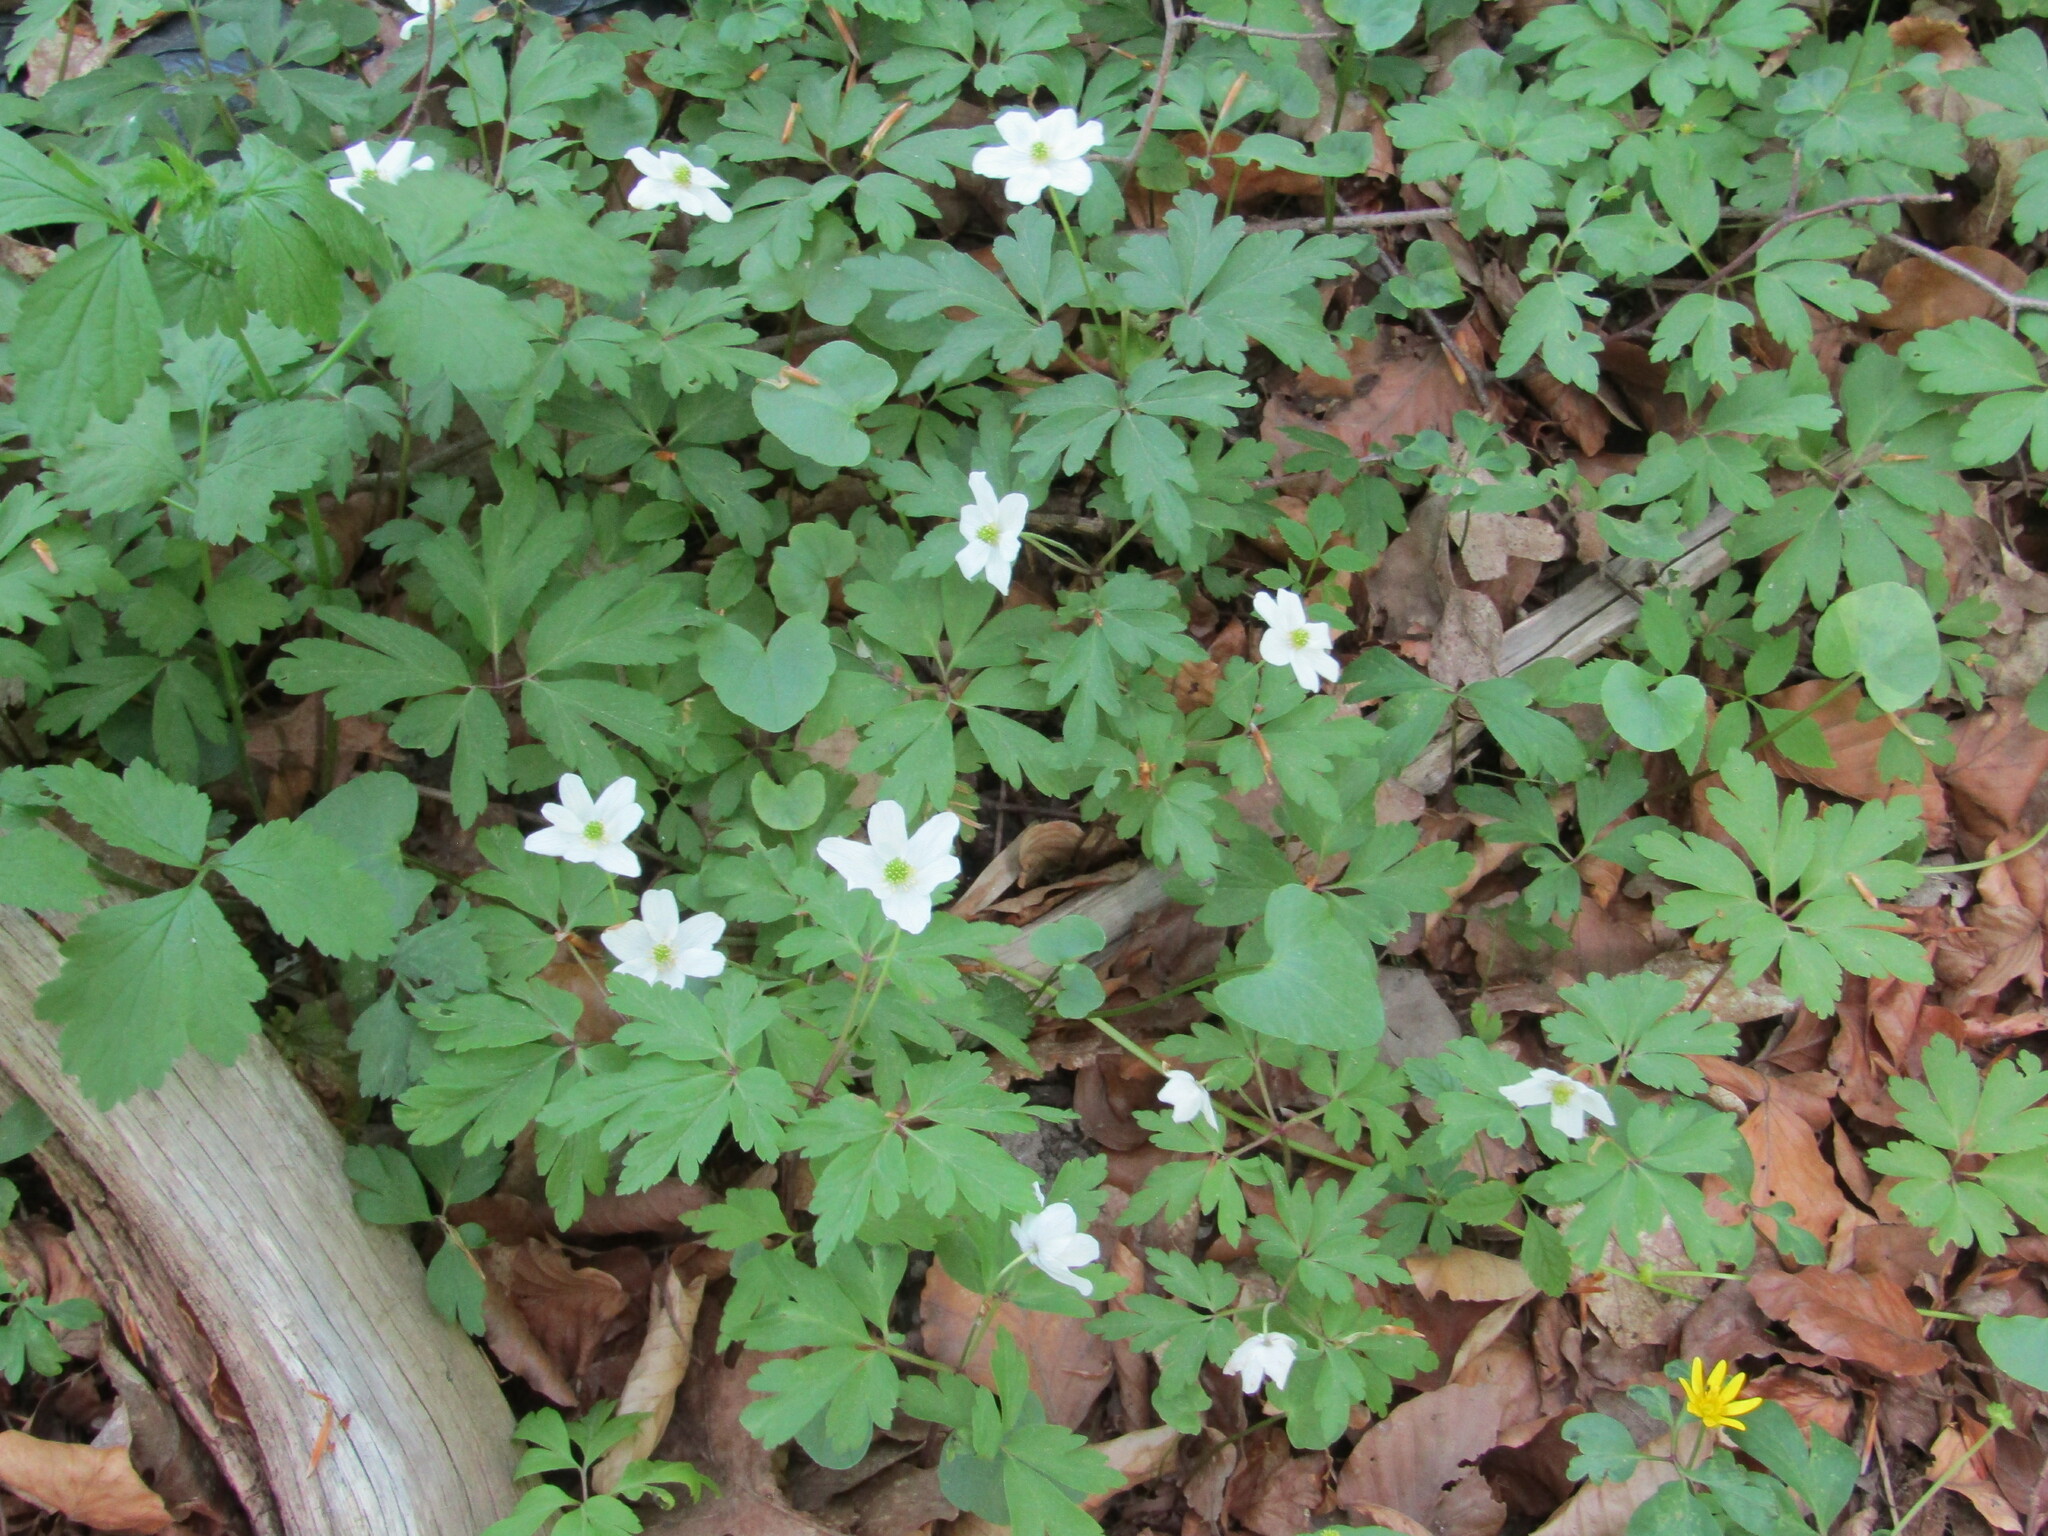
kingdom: Plantae
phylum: Tracheophyta
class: Magnoliopsida
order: Ranunculales
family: Ranunculaceae
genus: Anemone
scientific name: Anemone nemorosa
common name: Wood anemone
